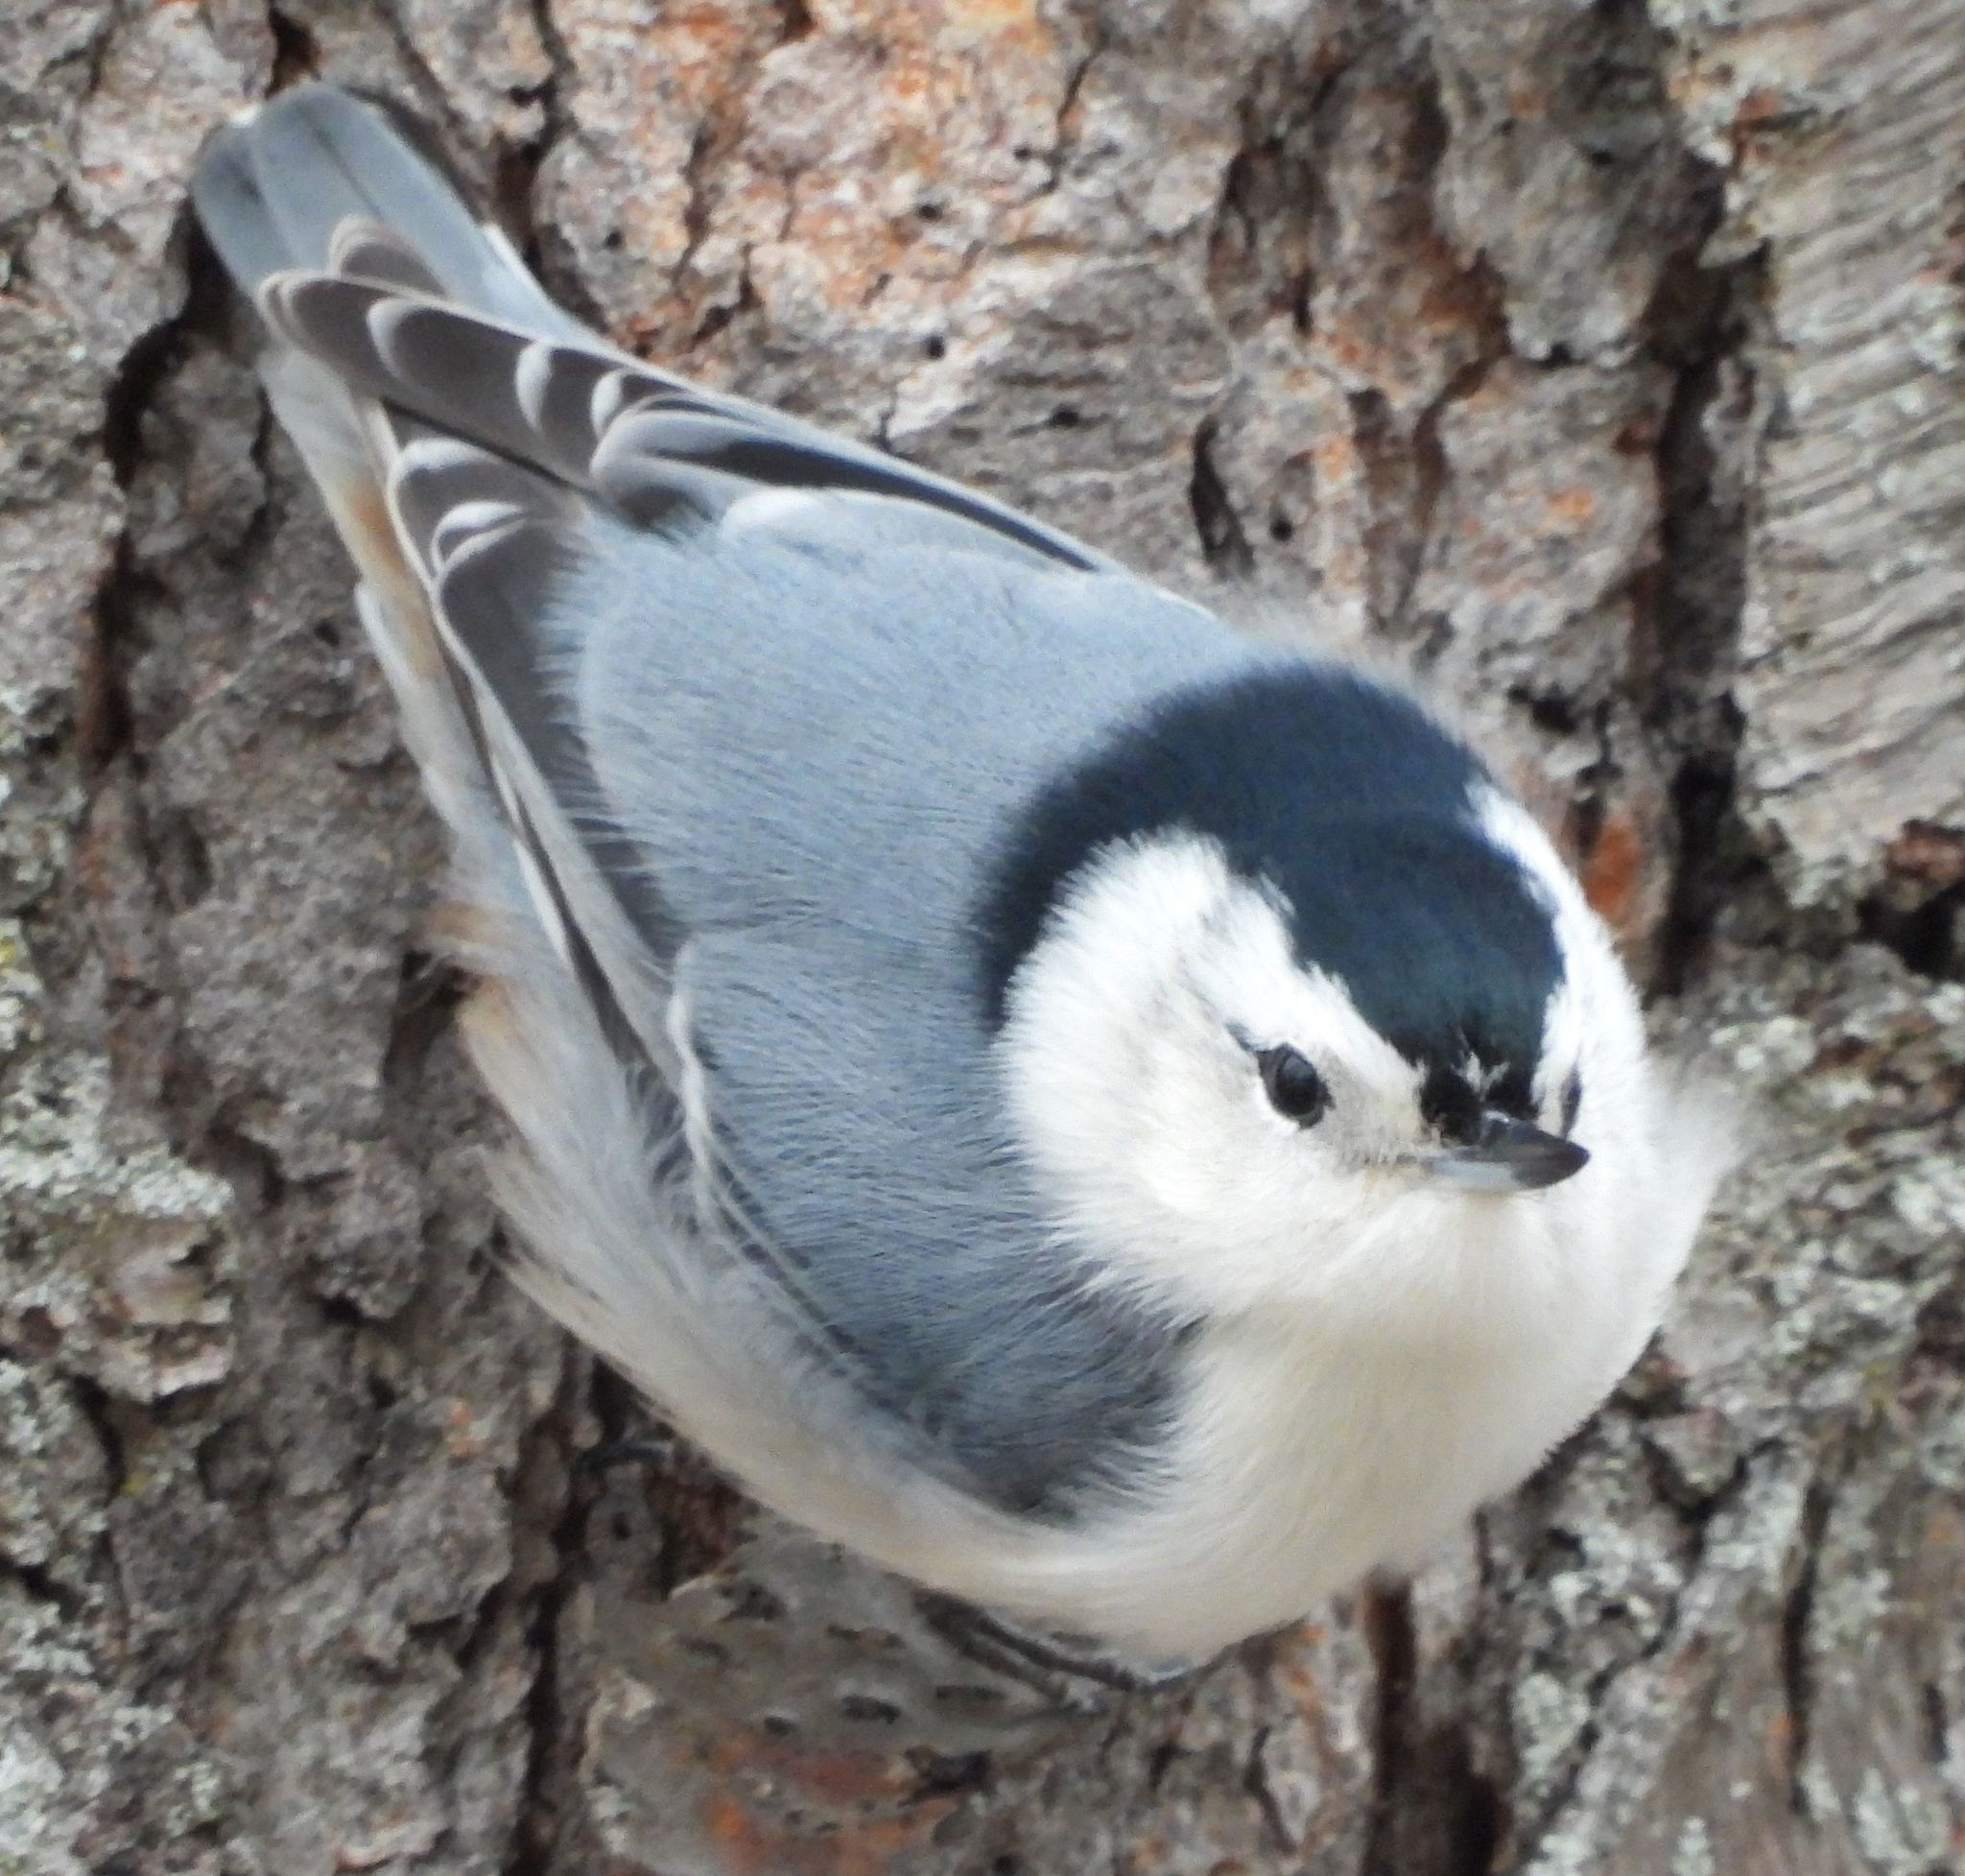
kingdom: Animalia
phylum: Chordata
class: Aves
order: Passeriformes
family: Sittidae
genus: Sitta
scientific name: Sitta carolinensis
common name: White-breasted nuthatch
